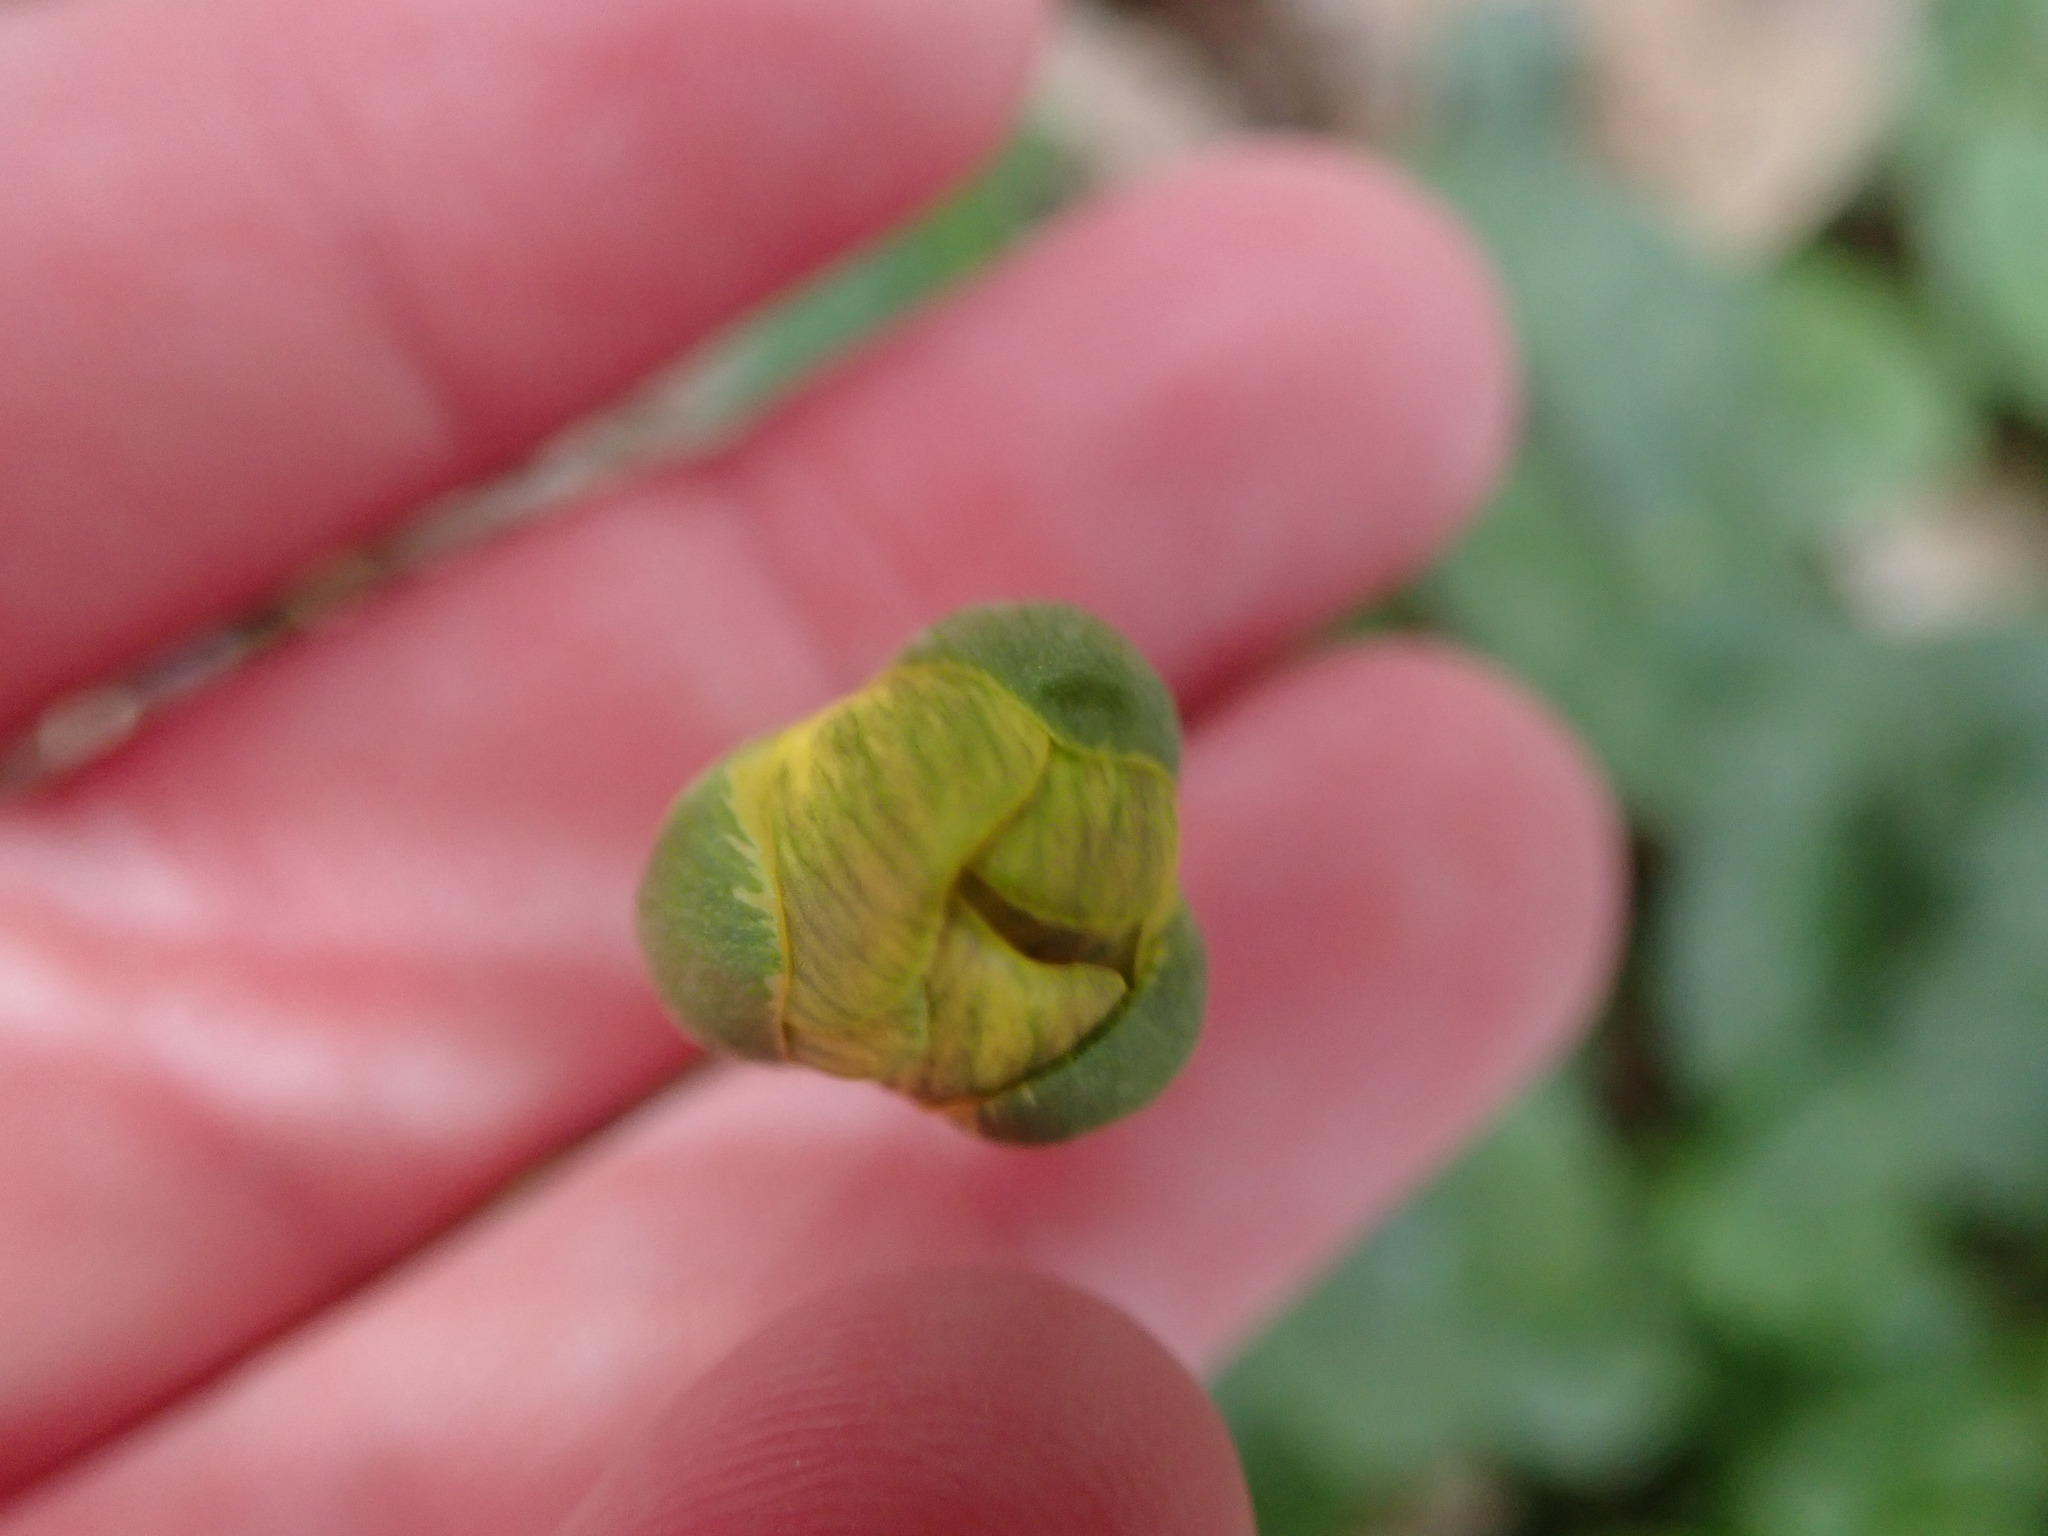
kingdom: Plantae
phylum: Tracheophyta
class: Magnoliopsida
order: Ranunculales
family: Ranunculaceae
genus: Ficaria
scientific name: Ficaria verna
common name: Lesser celandine
